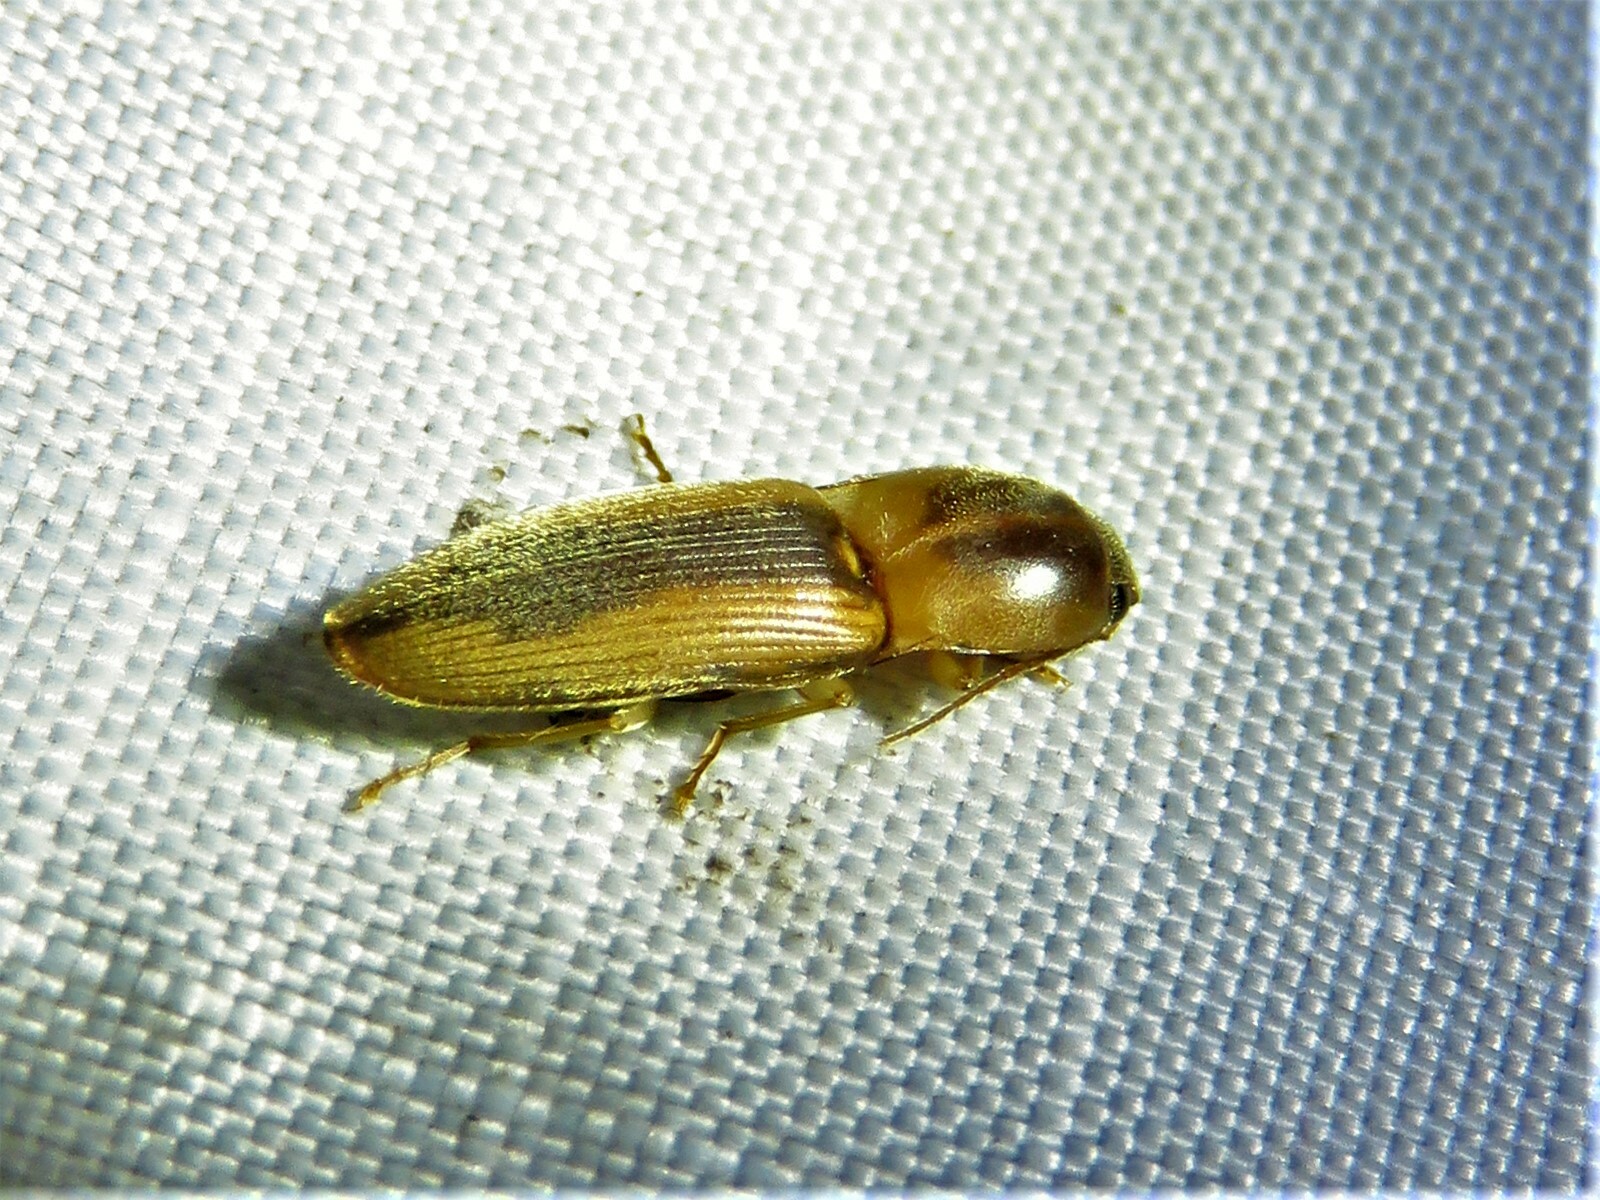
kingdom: Animalia
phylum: Arthropoda
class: Insecta
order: Coleoptera
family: Elateridae
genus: Monocrepidius
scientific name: Monocrepidius aversus
